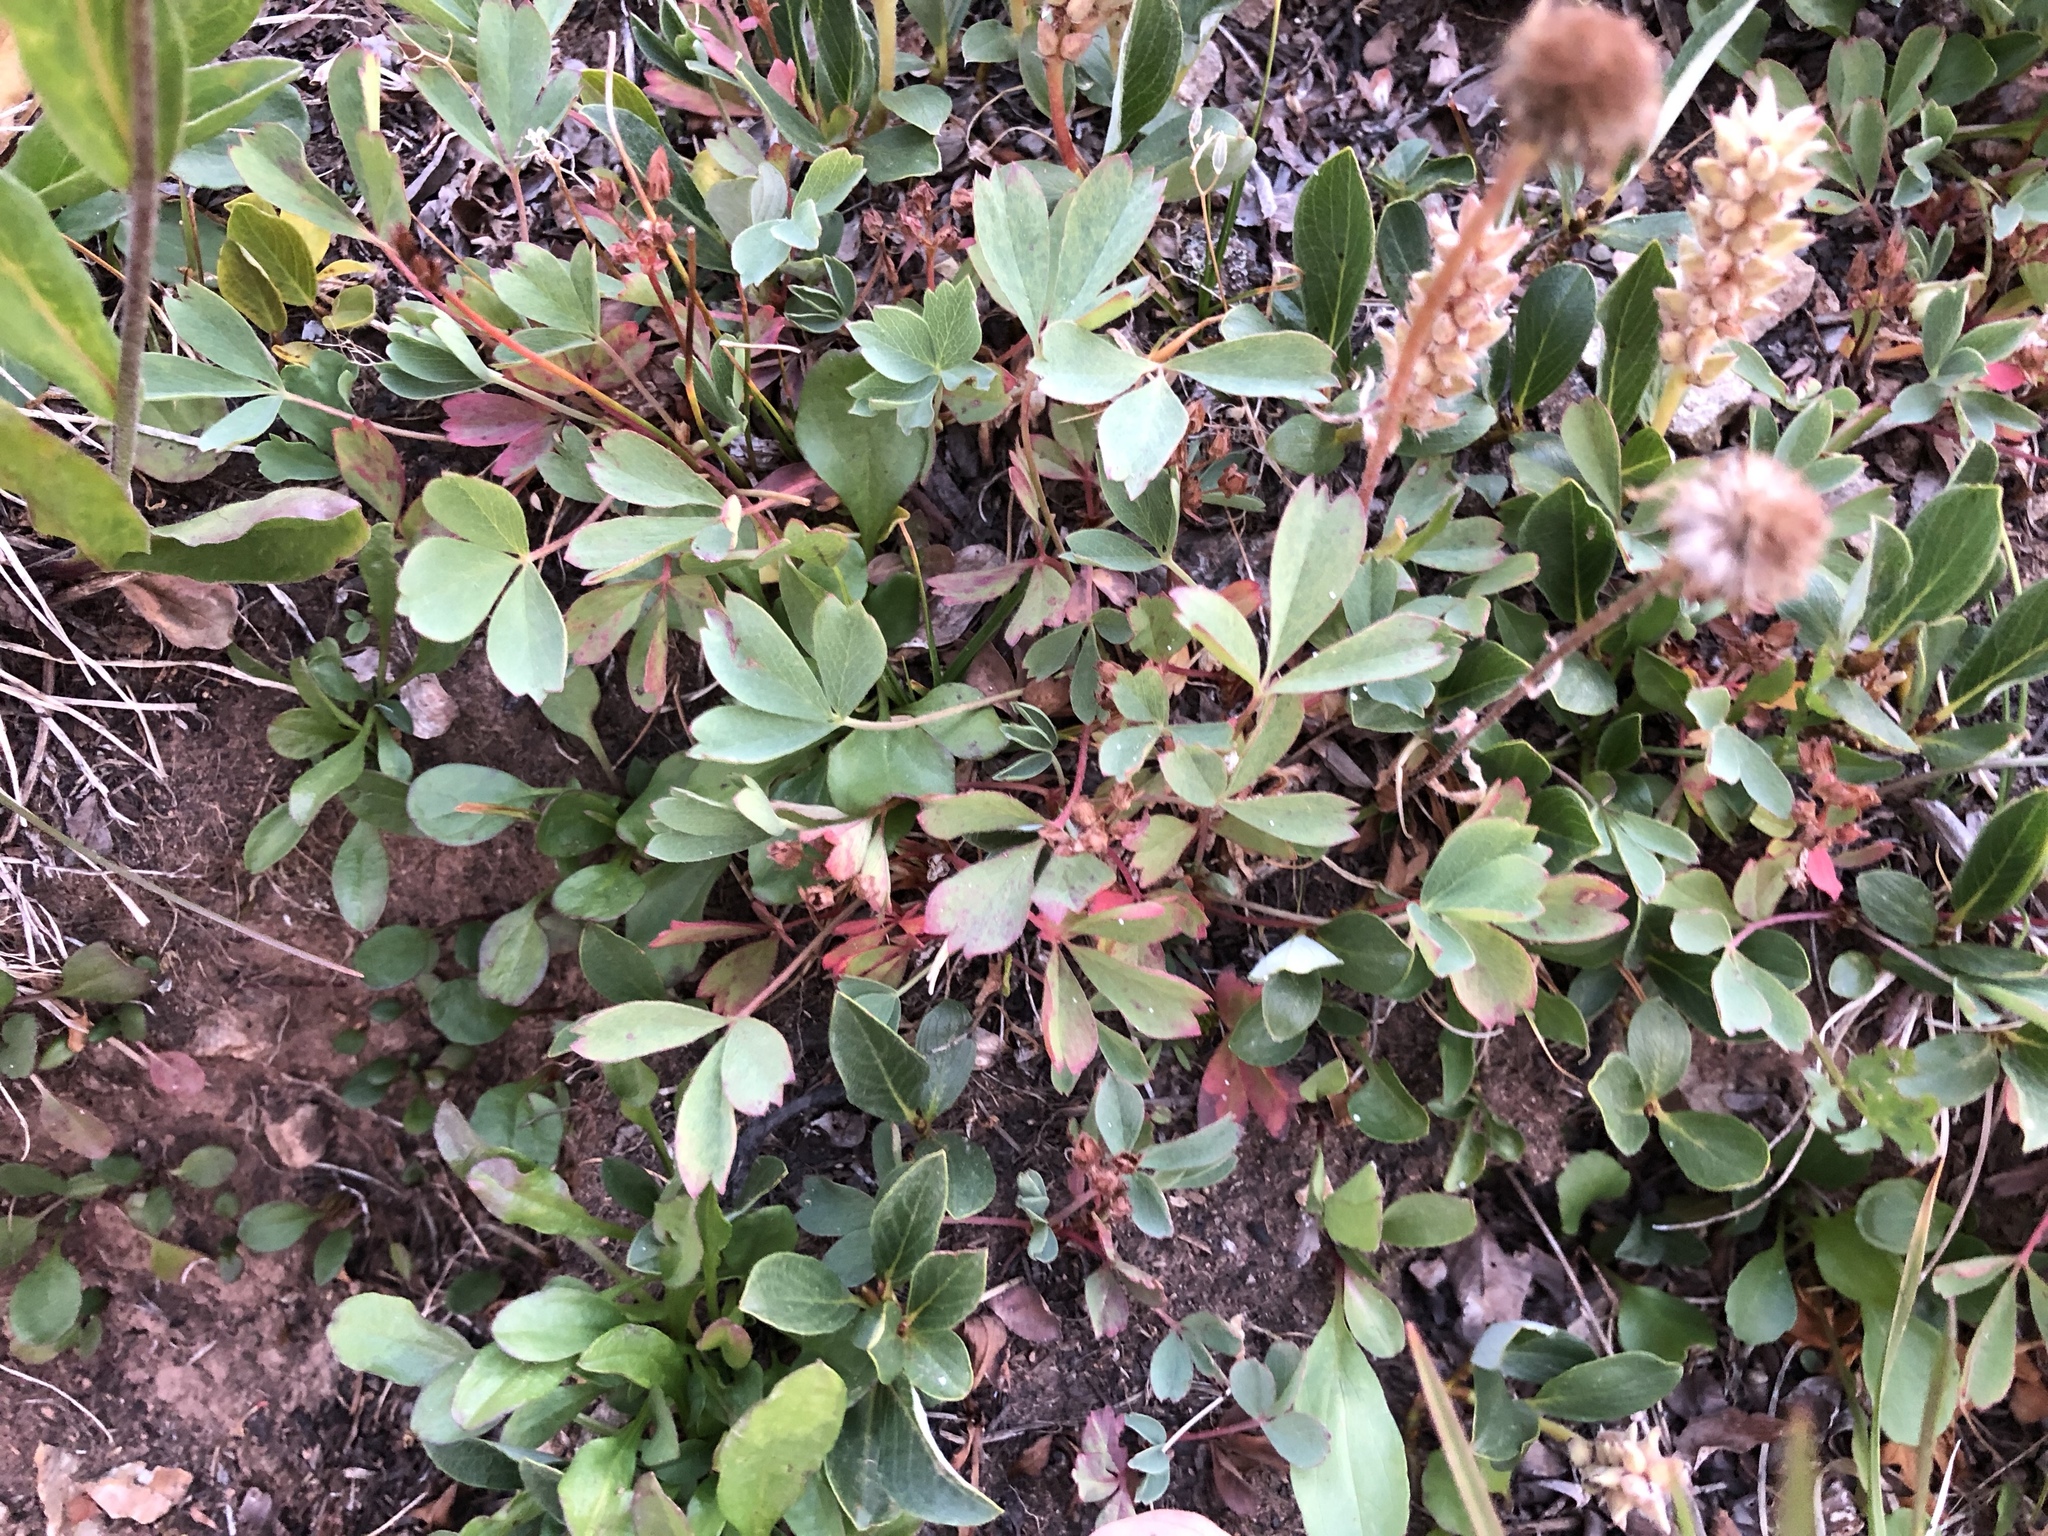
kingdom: Plantae
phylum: Tracheophyta
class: Magnoliopsida
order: Rosales
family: Rosaceae
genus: Sibbaldia
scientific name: Sibbaldia procumbens
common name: Creeping sibbaldia
